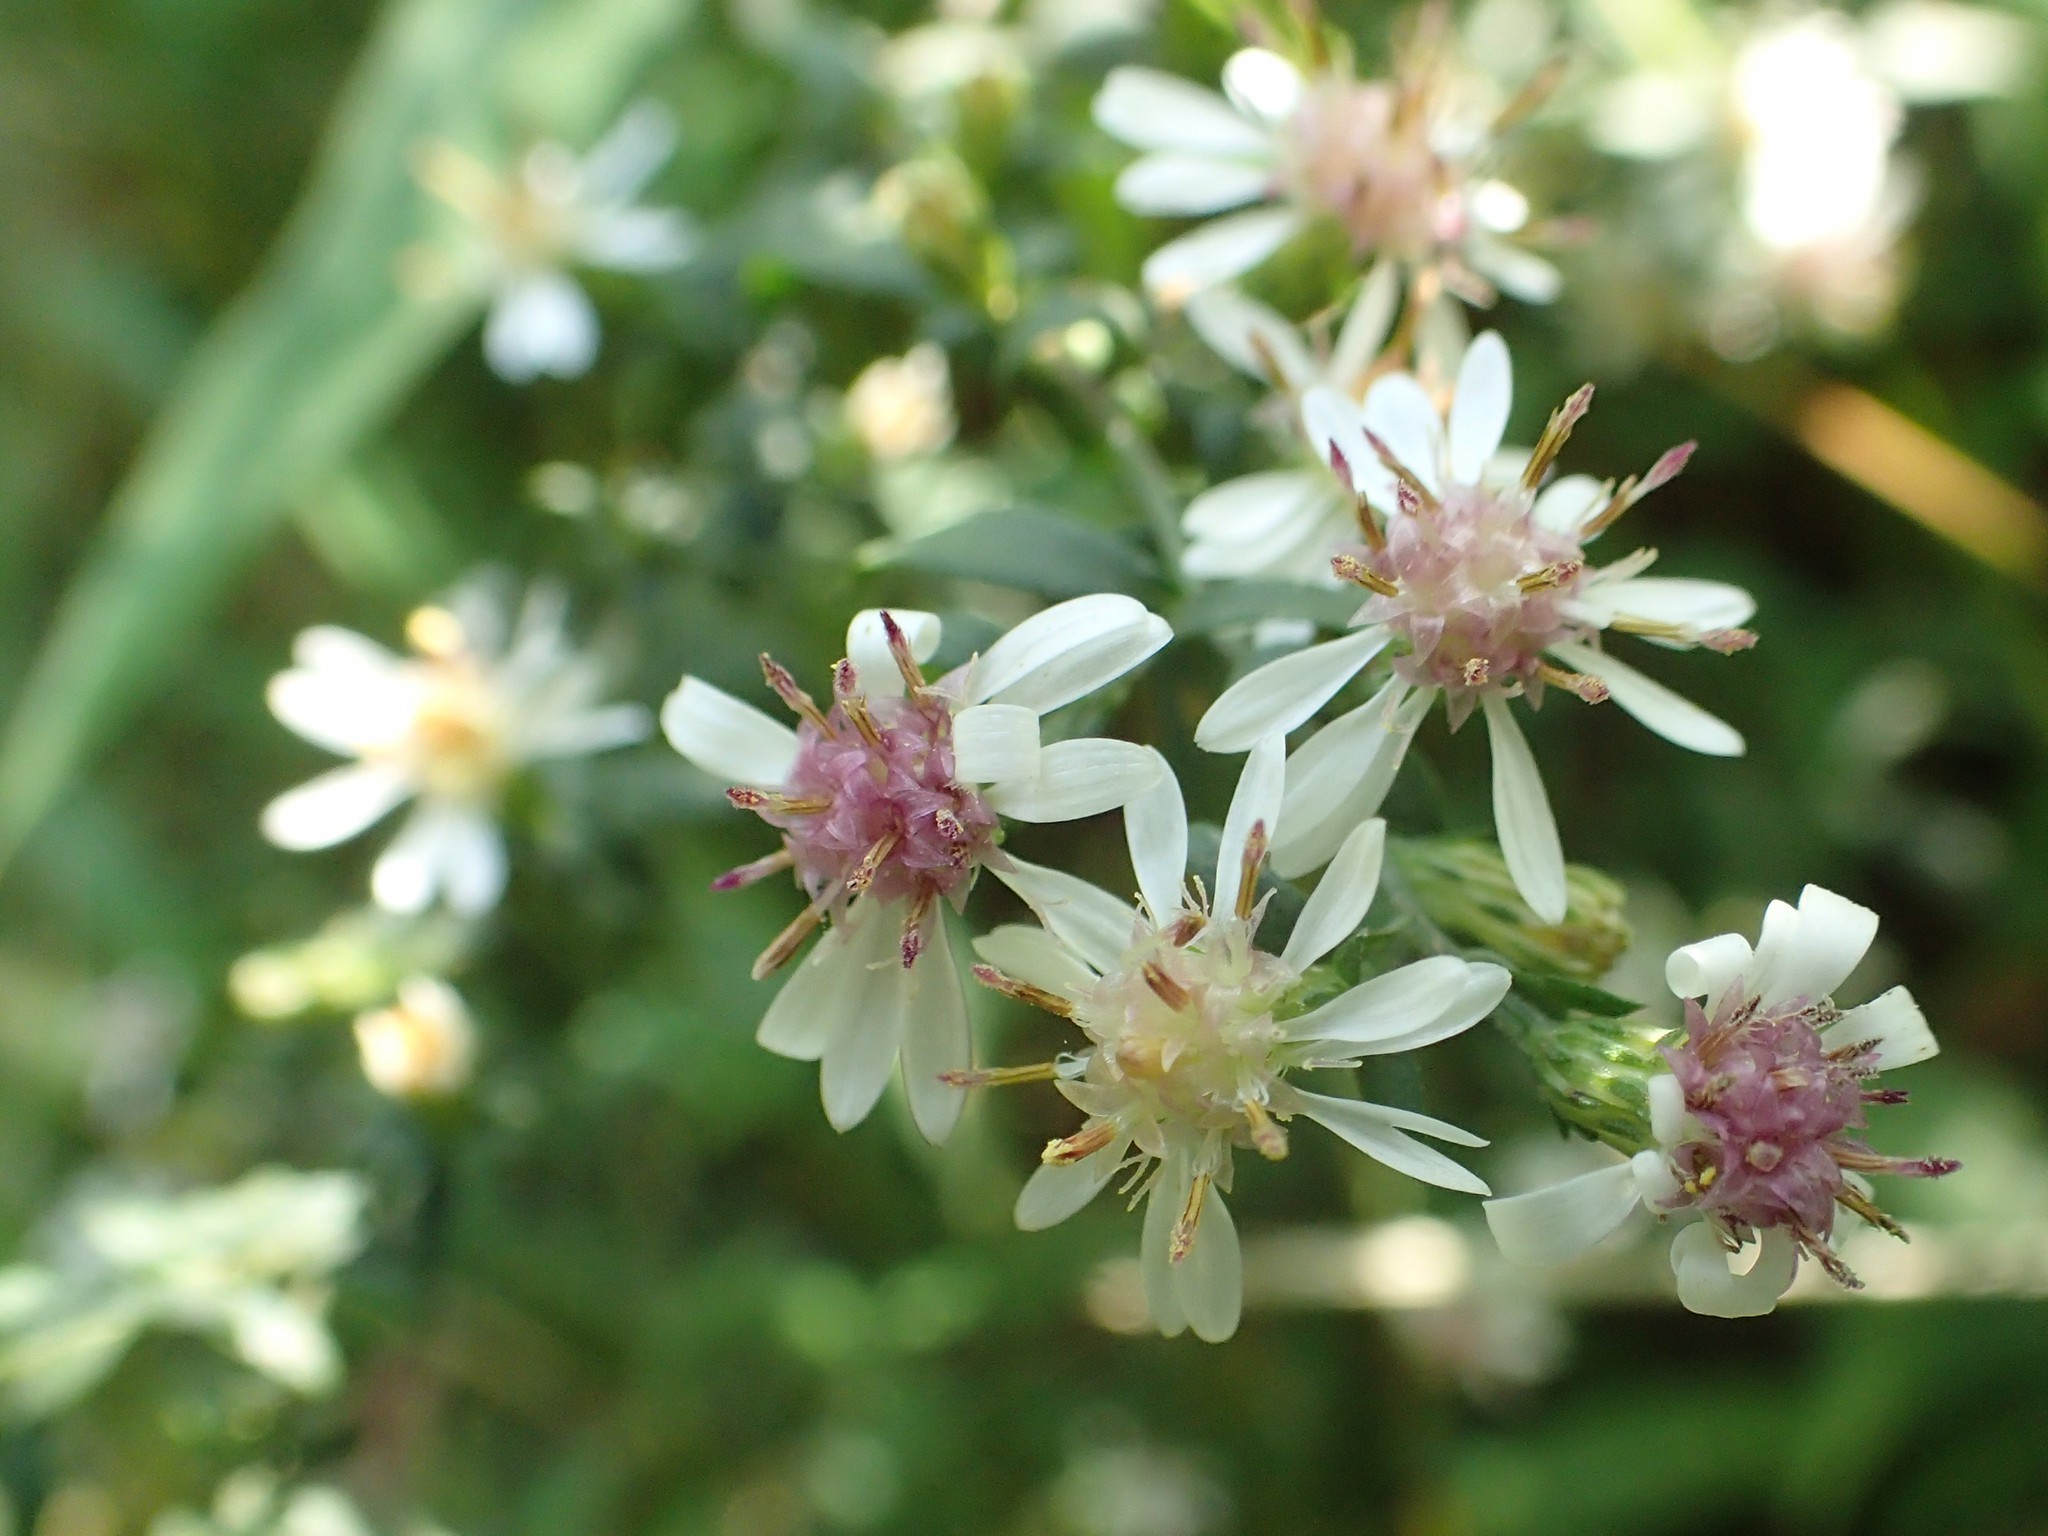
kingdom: Plantae
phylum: Tracheophyta
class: Magnoliopsida
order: Asterales
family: Asteraceae
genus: Symphyotrichum
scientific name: Symphyotrichum lateriflorum
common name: Calico aster
